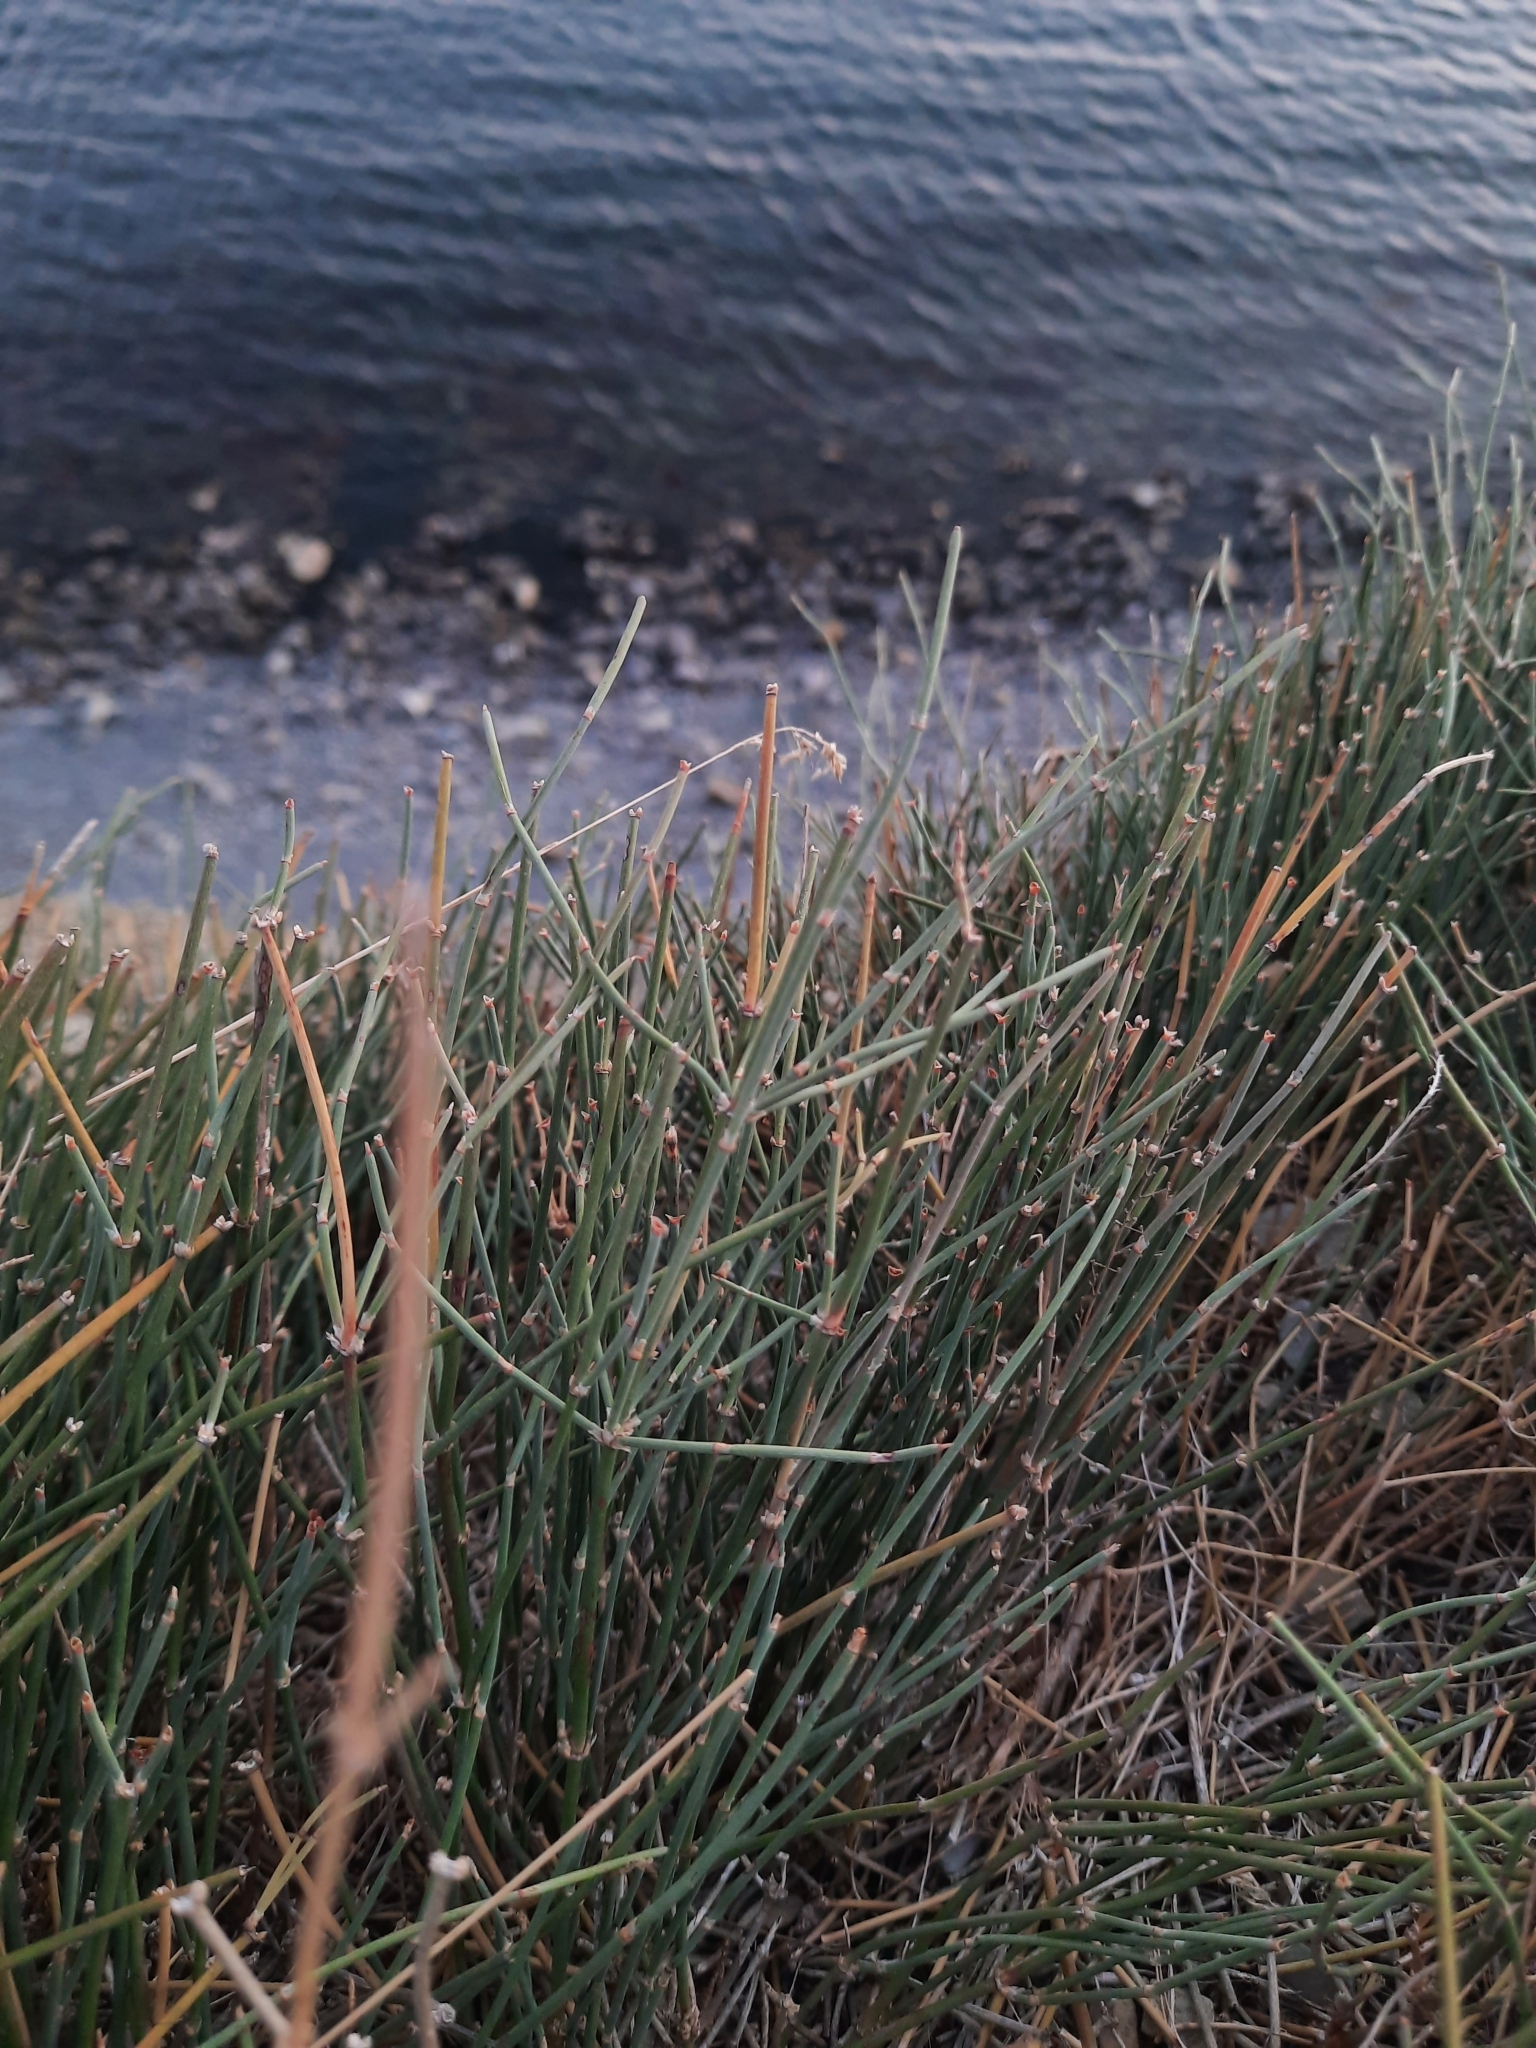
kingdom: Plantae
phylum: Tracheophyta
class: Gnetopsida
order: Ephedrales
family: Ephedraceae
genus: Ephedra
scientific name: Ephedra distachya
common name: Sea grape
